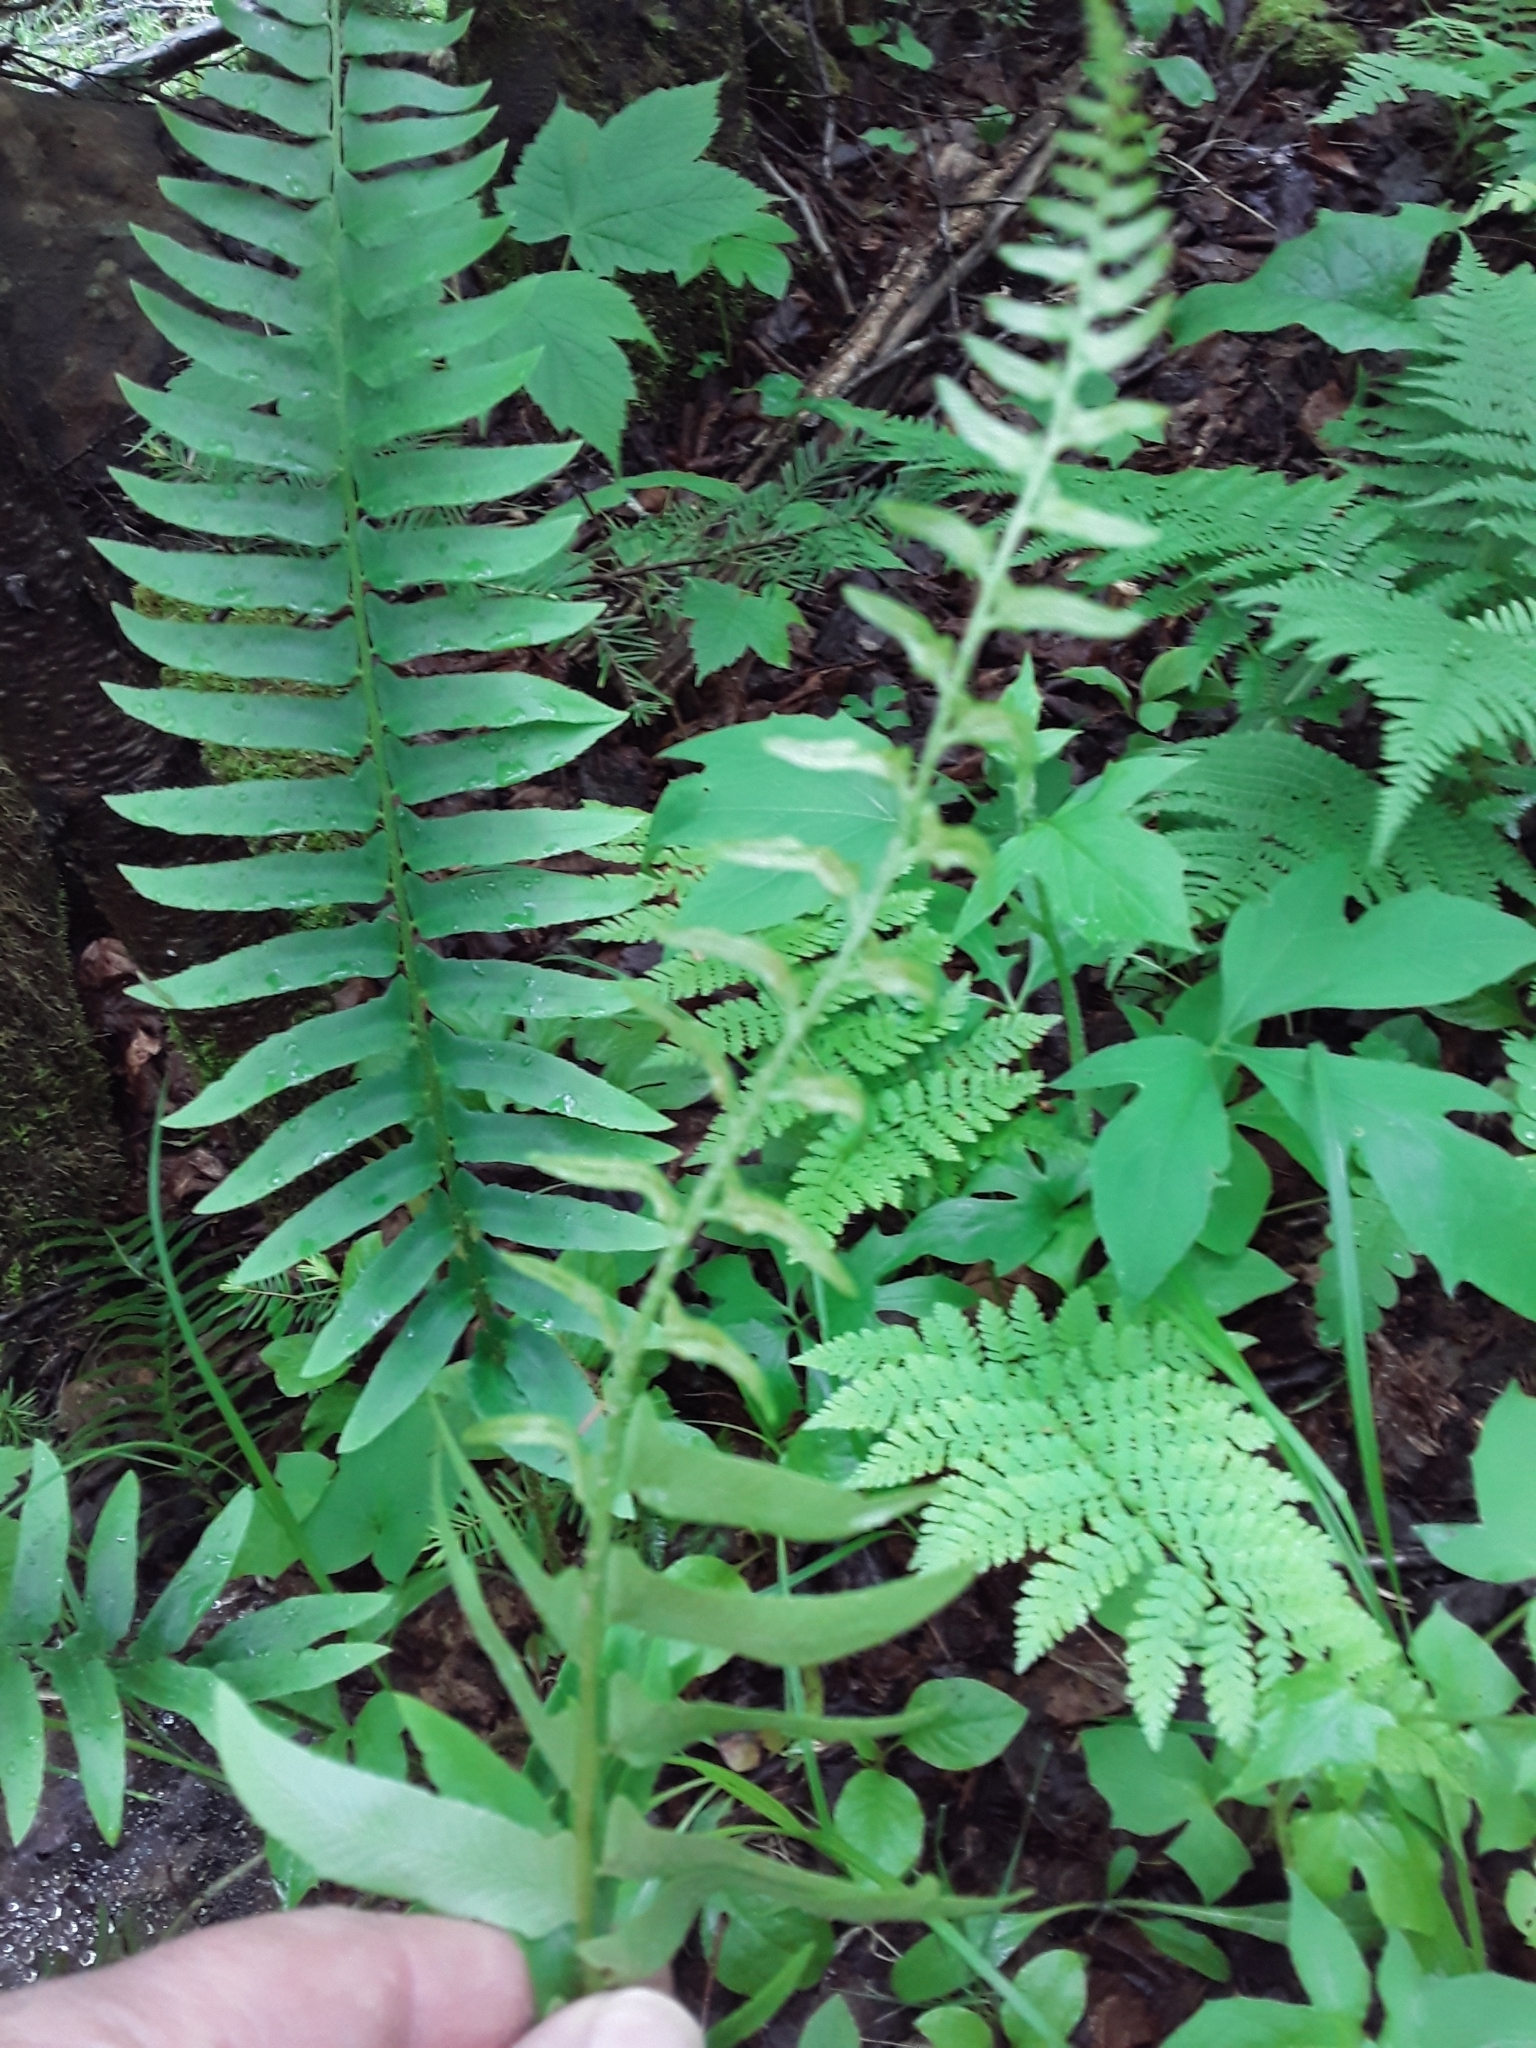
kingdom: Plantae
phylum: Tracheophyta
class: Polypodiopsida
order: Polypodiales
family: Dryopteridaceae
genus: Polystichum
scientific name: Polystichum acrostichoides
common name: Christmas fern
